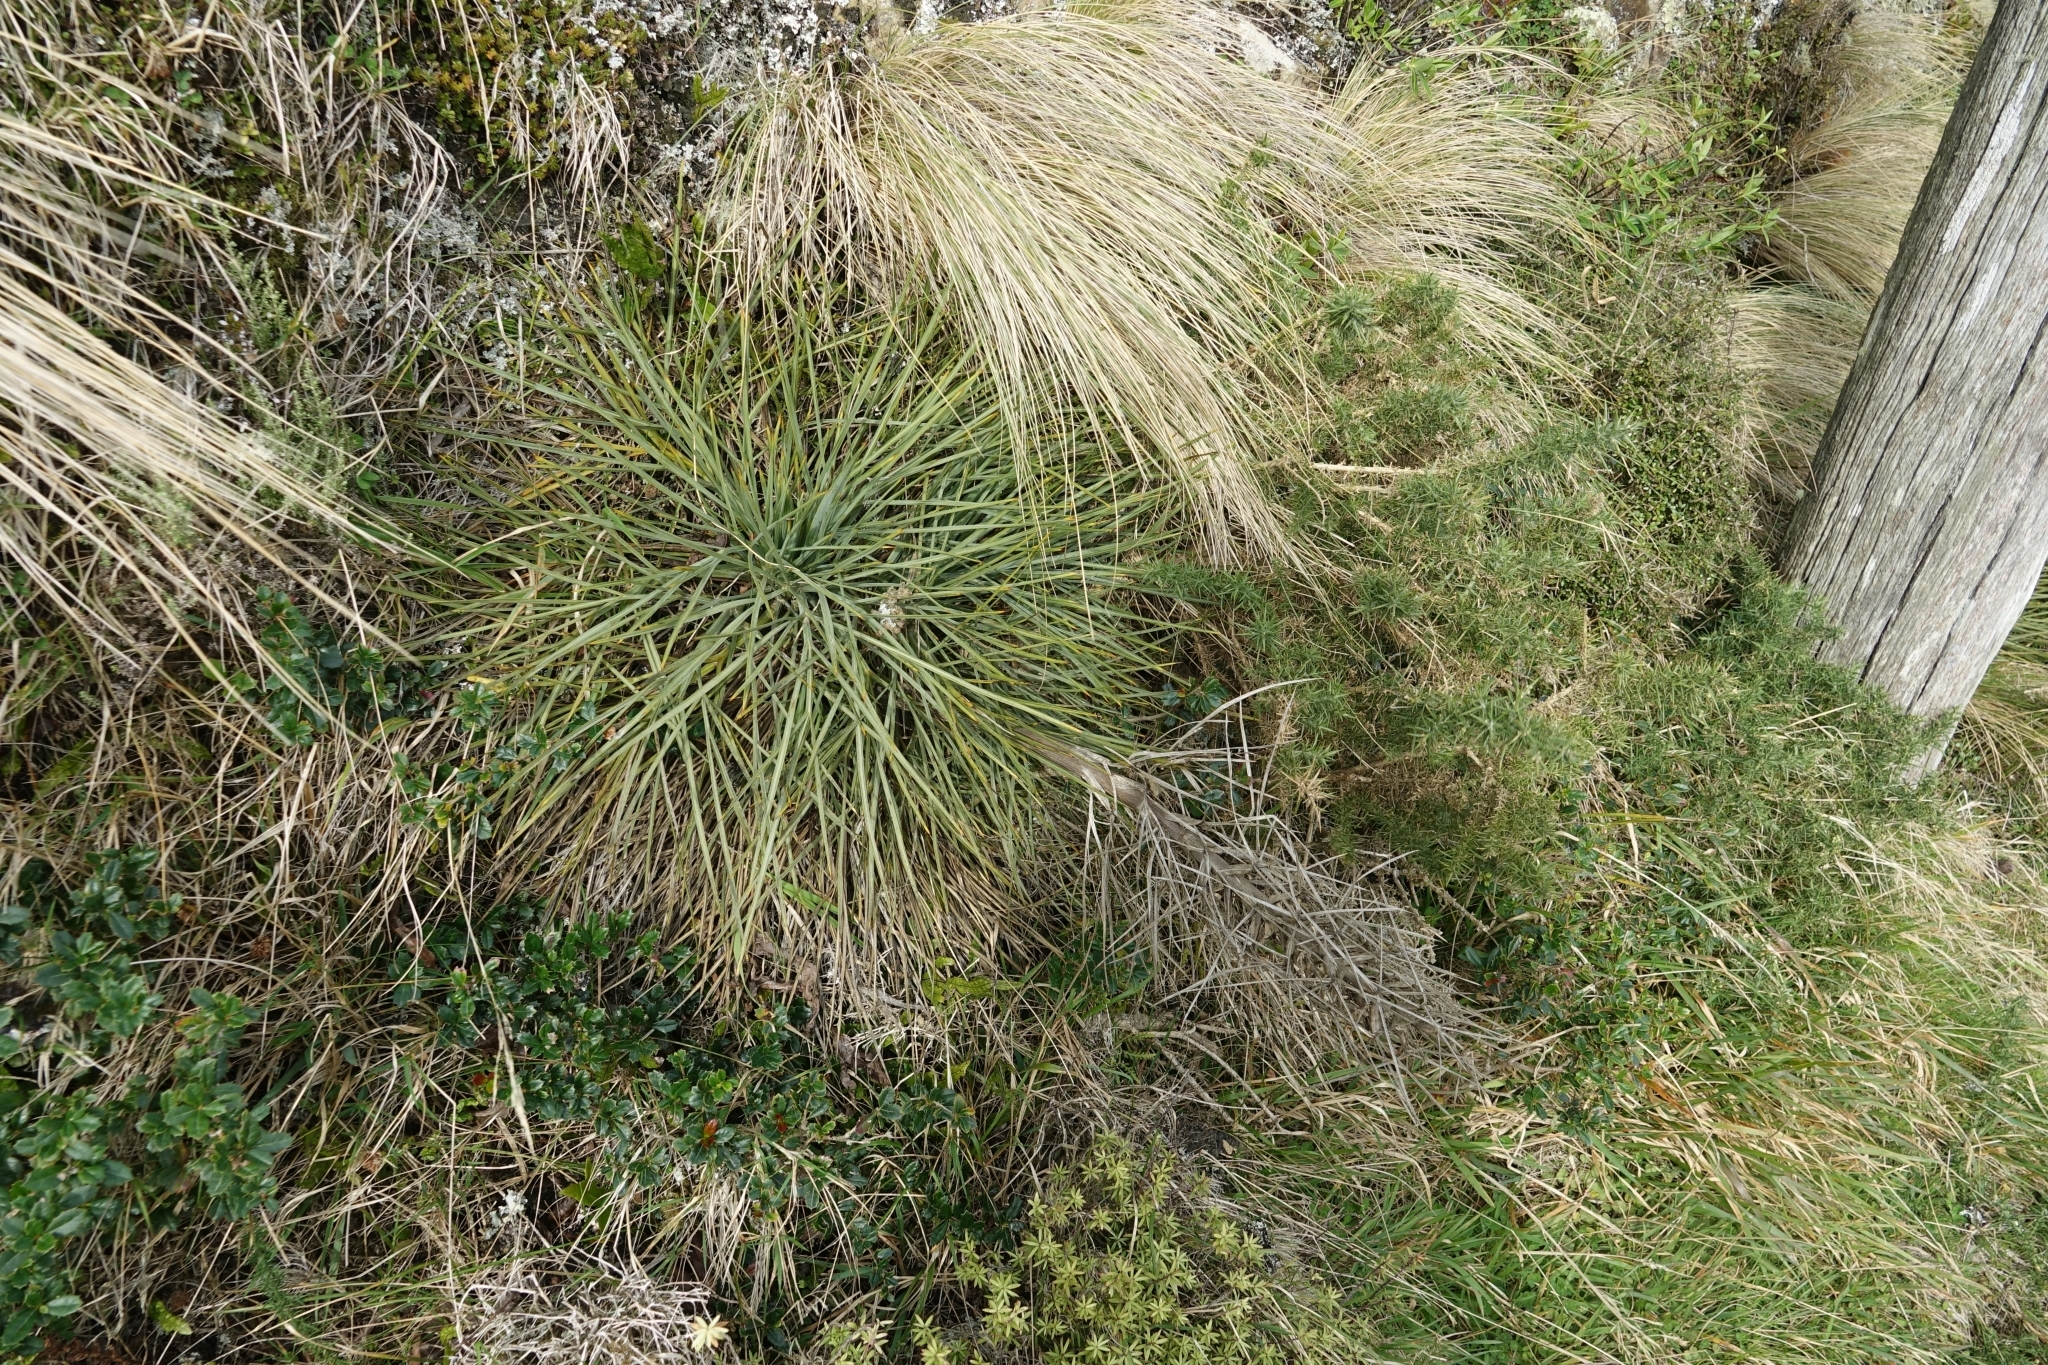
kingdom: Plantae
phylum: Tracheophyta
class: Magnoliopsida
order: Apiales
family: Apiaceae
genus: Aciphylla
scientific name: Aciphylla squarrosa
